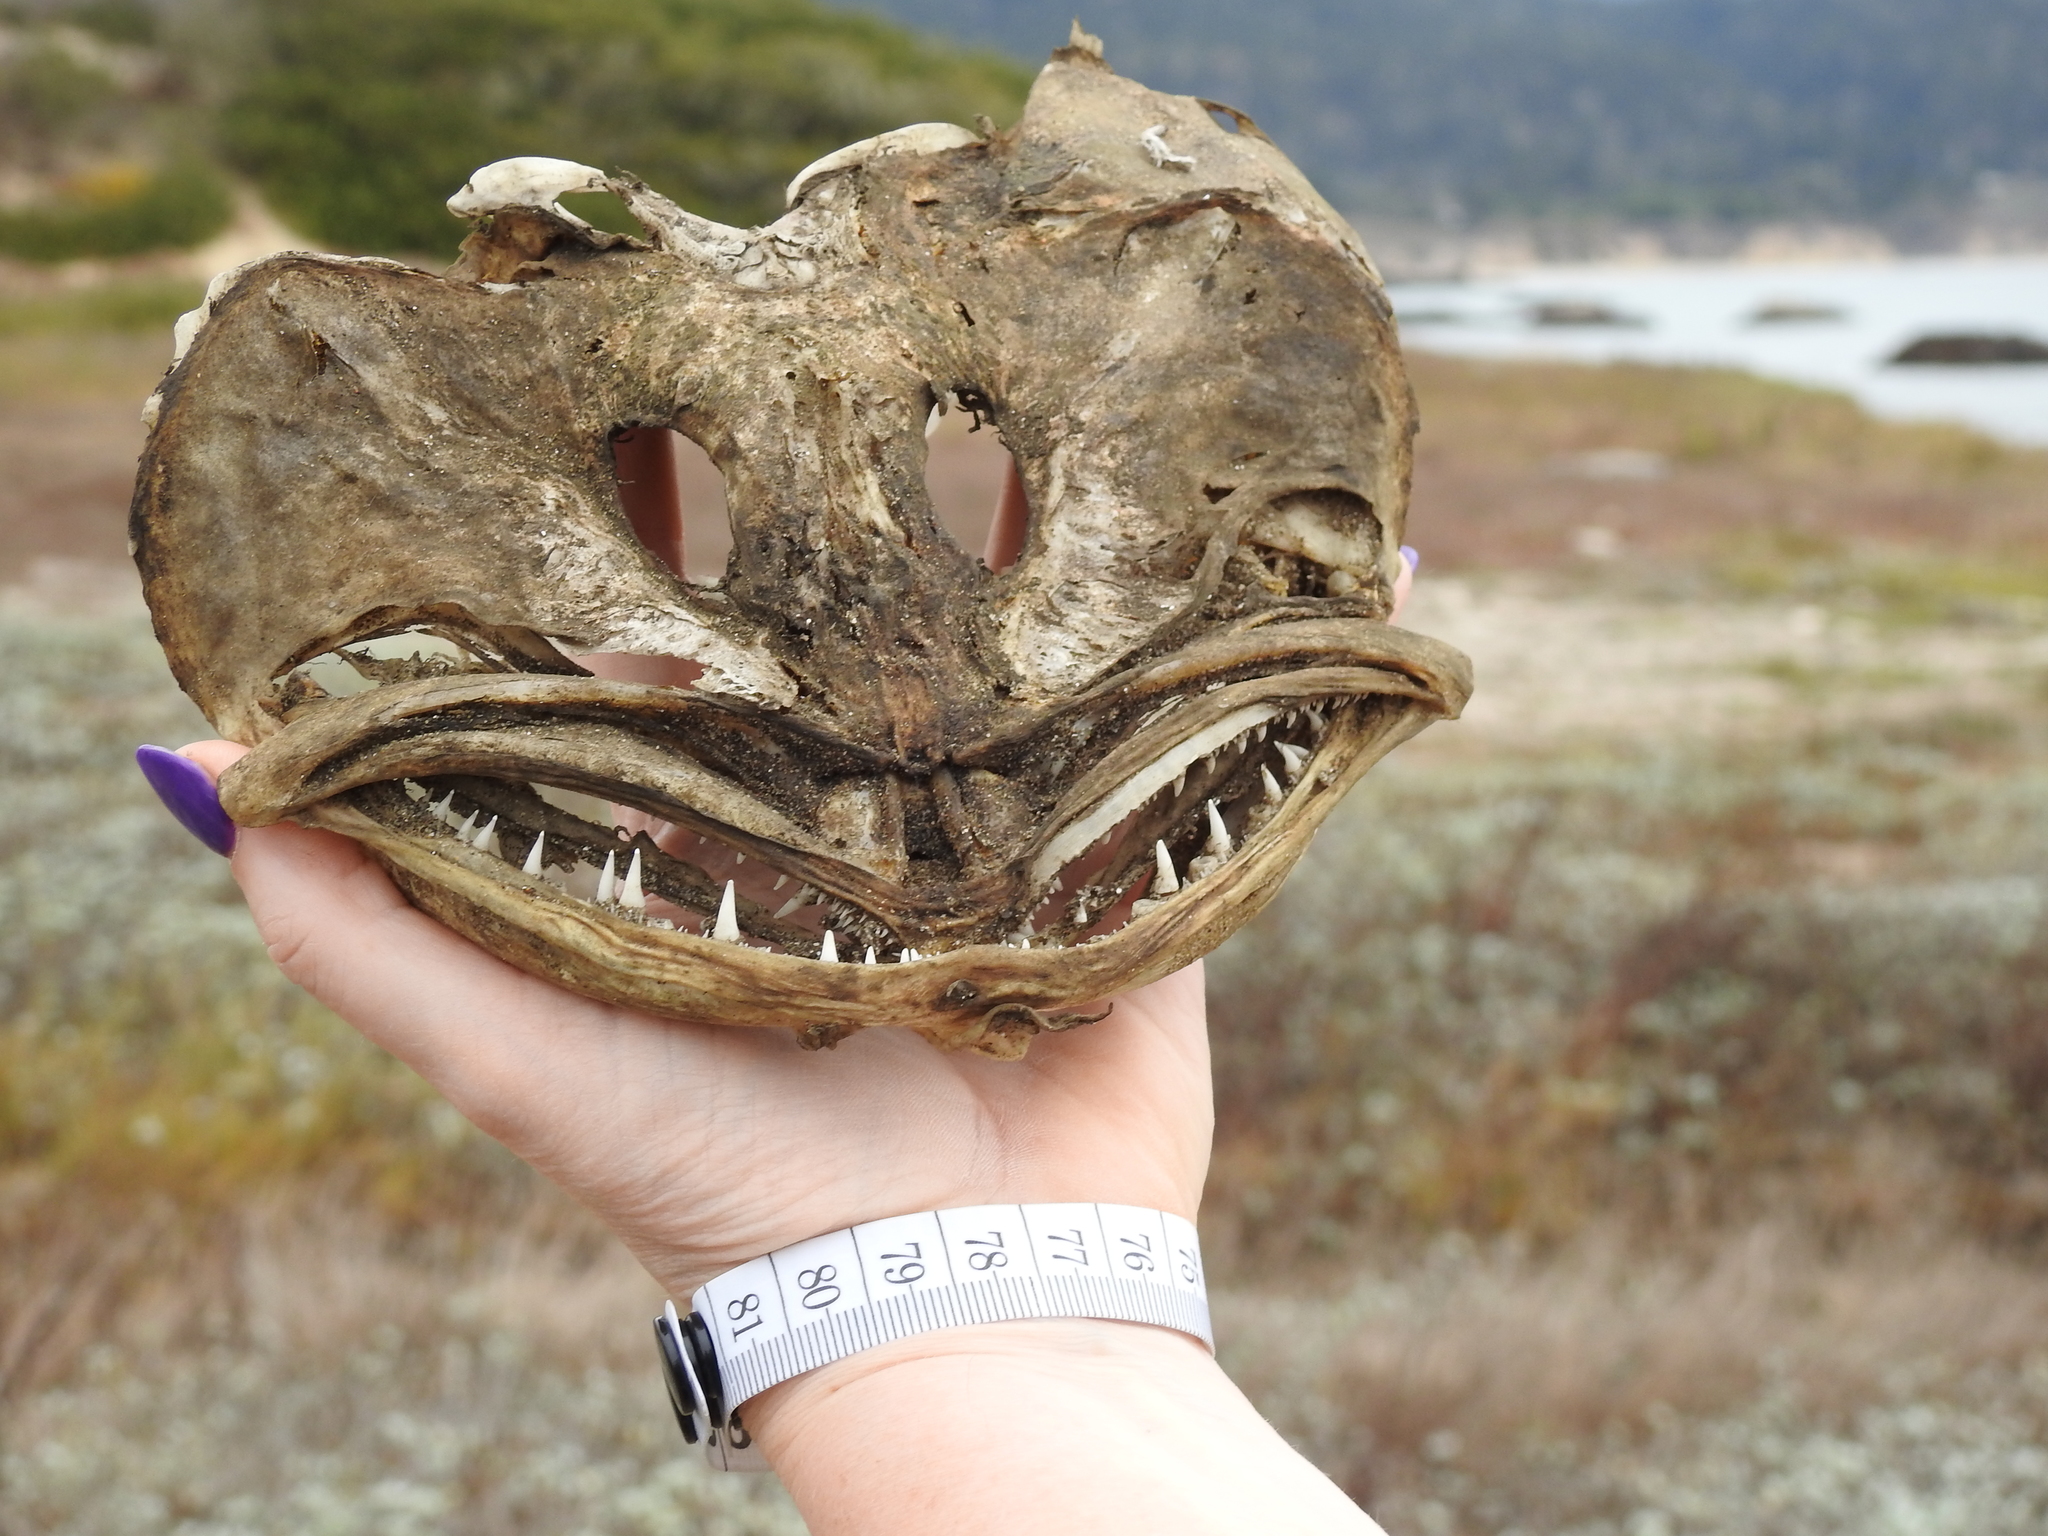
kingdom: Animalia
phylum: Chordata
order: Scorpaeniformes
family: Hexagrammidae
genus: Ophiodon
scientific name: Ophiodon elongatus
